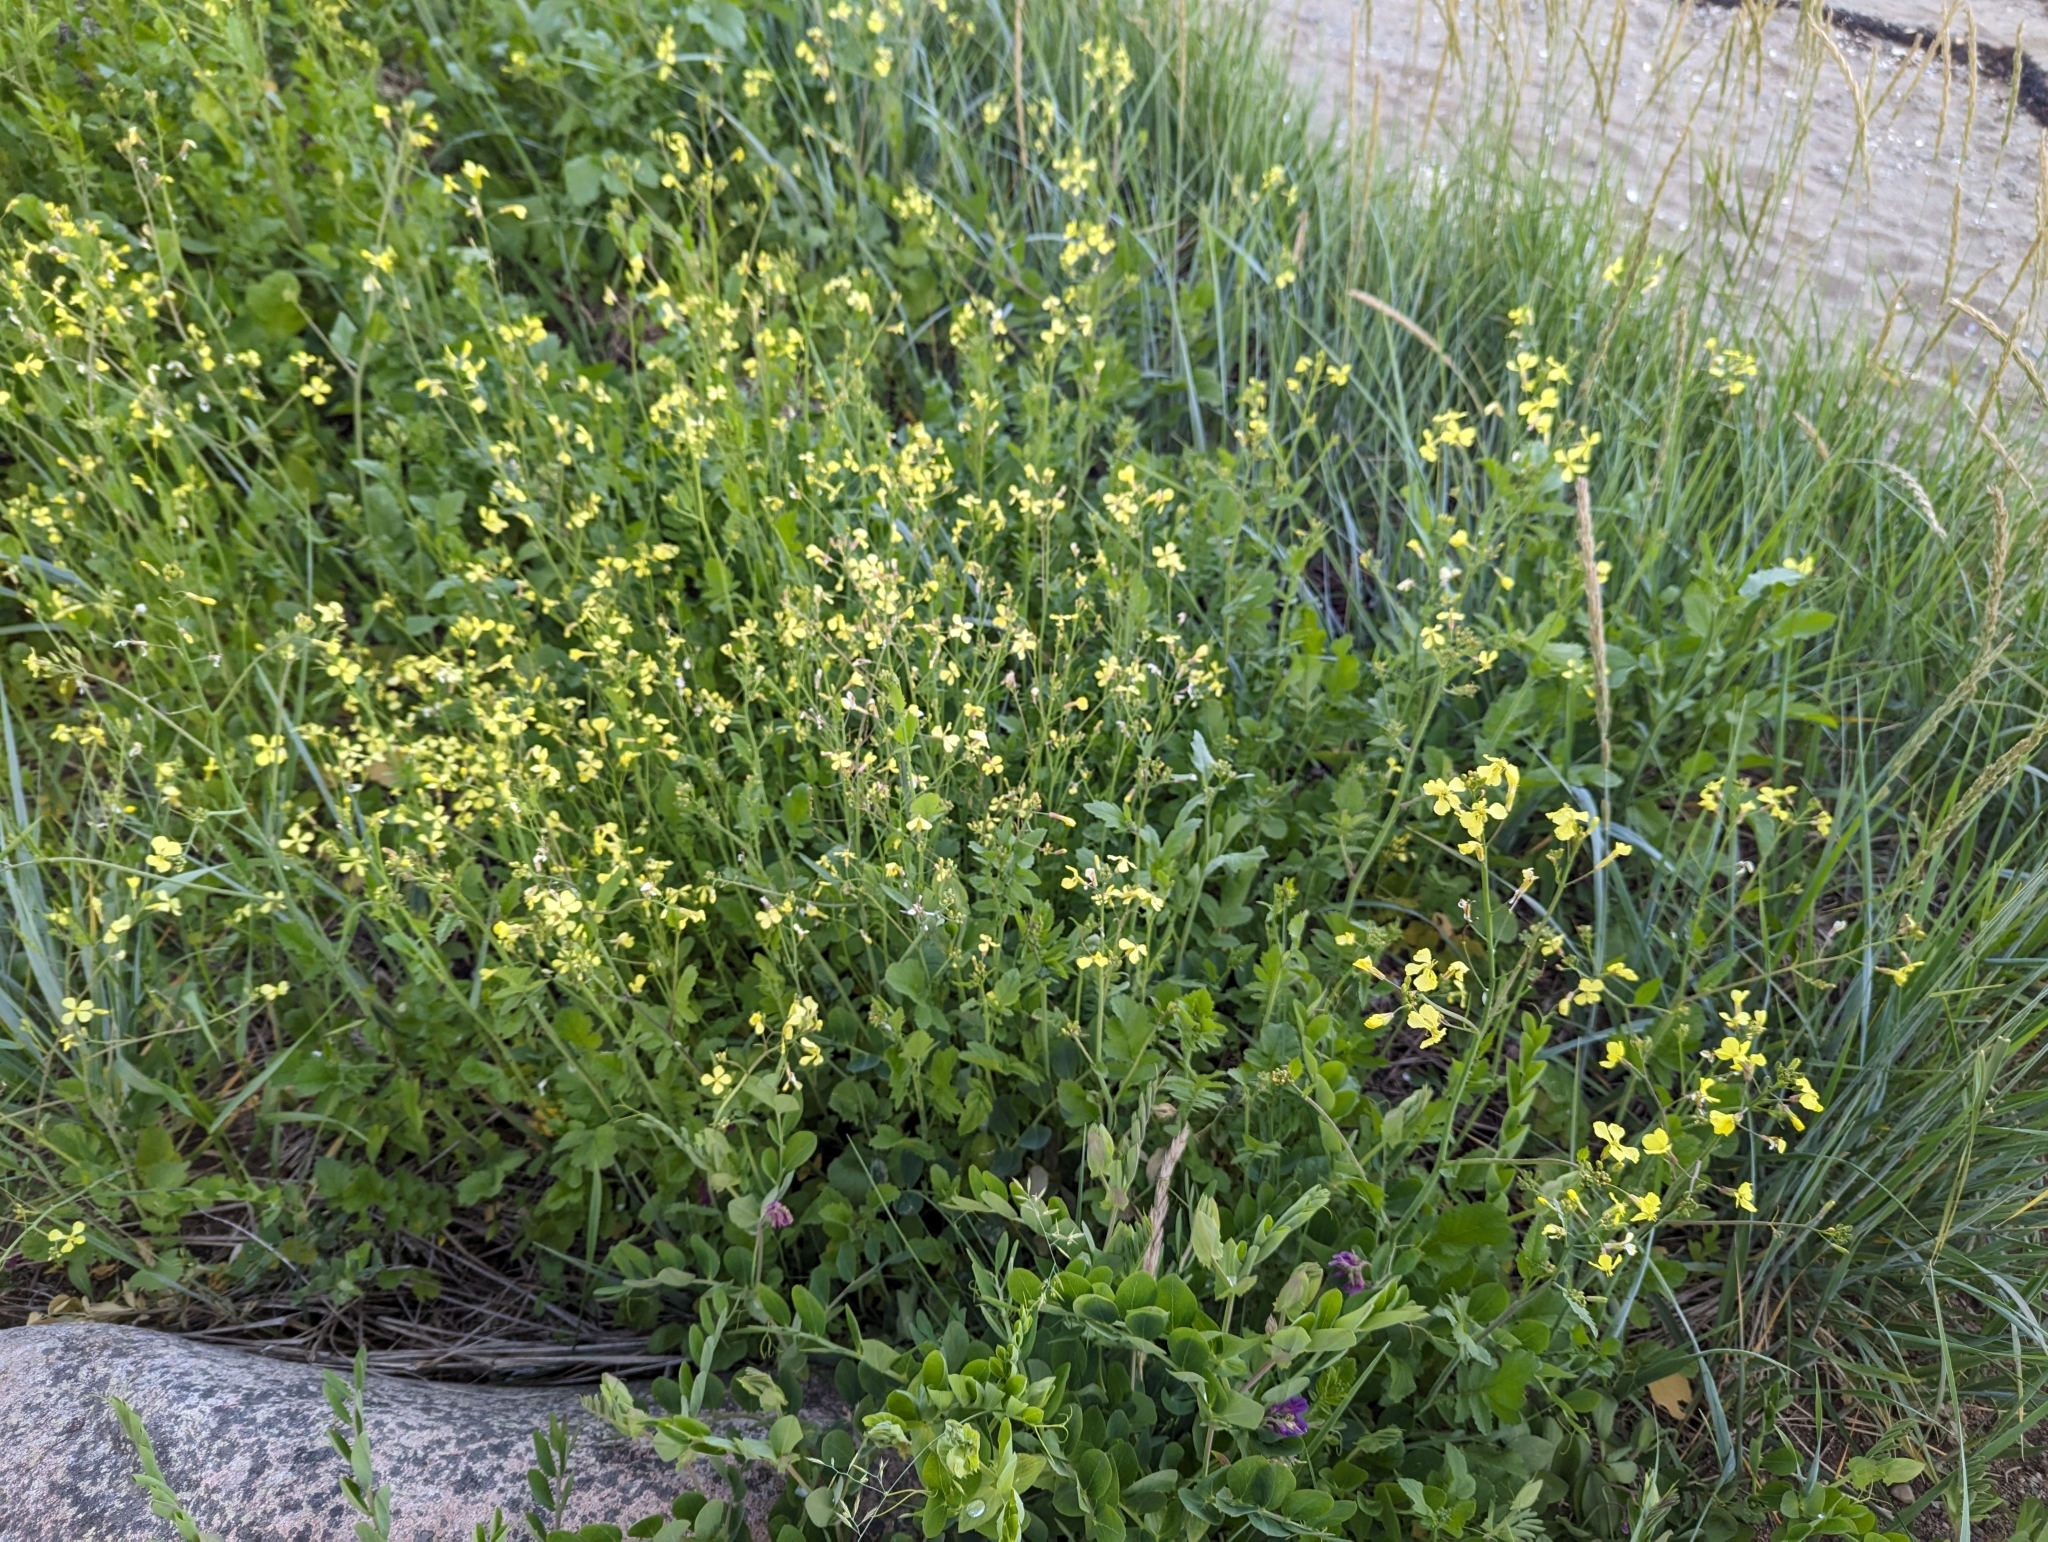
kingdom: Plantae
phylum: Tracheophyta
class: Magnoliopsida
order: Brassicales
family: Brassicaceae
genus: Raphanus
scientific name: Raphanus raphanistrum
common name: Wild radish
